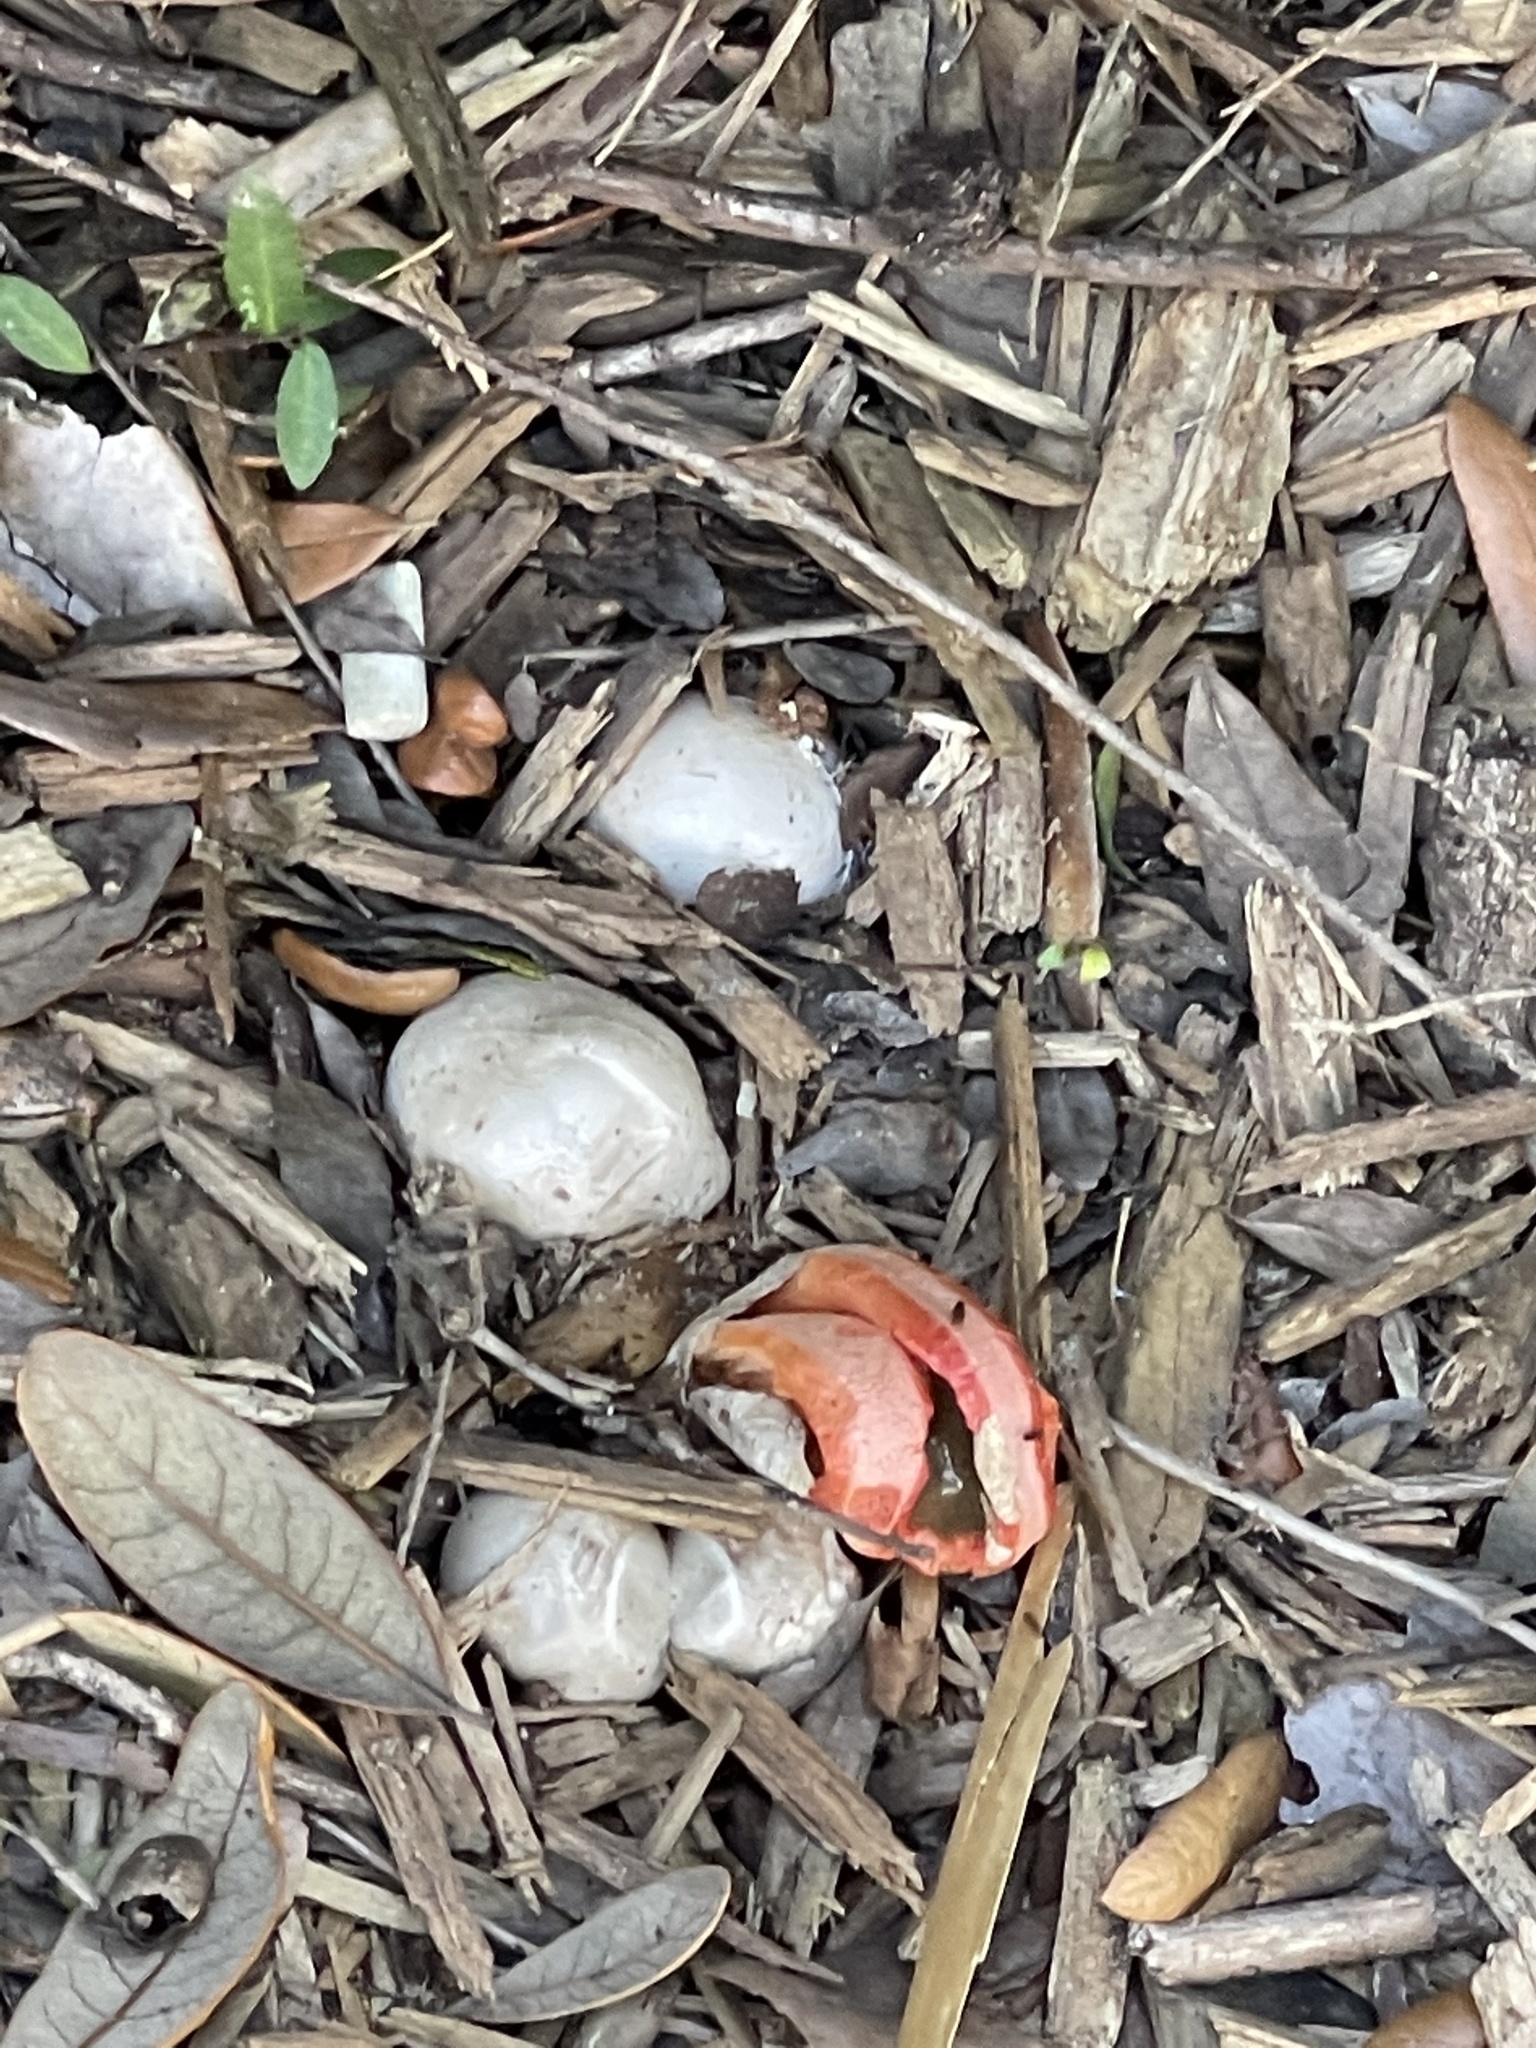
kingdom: Fungi
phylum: Basidiomycota
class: Agaricomycetes
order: Phallales
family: Phallaceae
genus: Clathrus
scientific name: Clathrus columnatus
